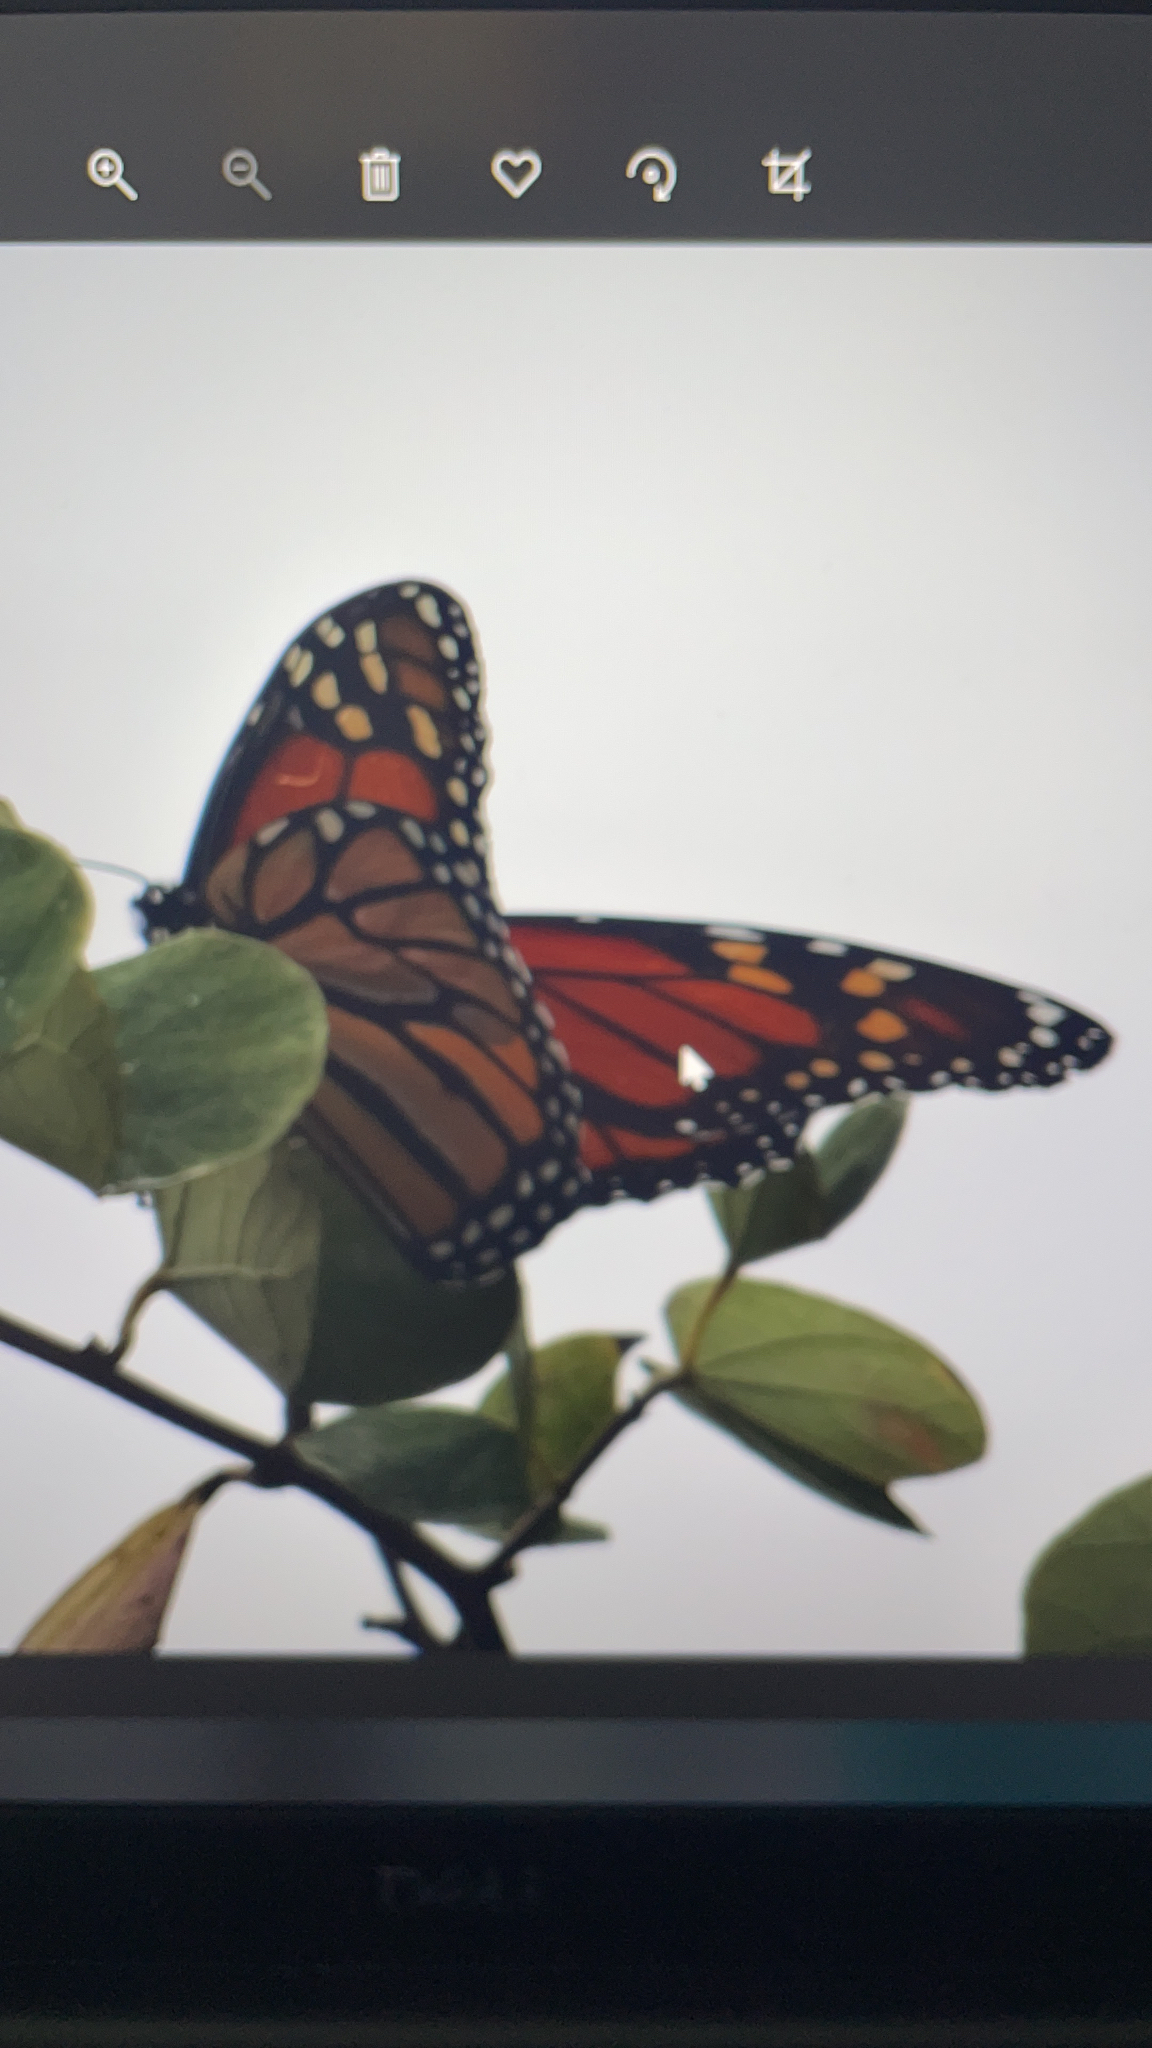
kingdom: Animalia
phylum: Arthropoda
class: Insecta
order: Lepidoptera
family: Nymphalidae
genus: Danaus
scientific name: Danaus plexippus
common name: Monarch
